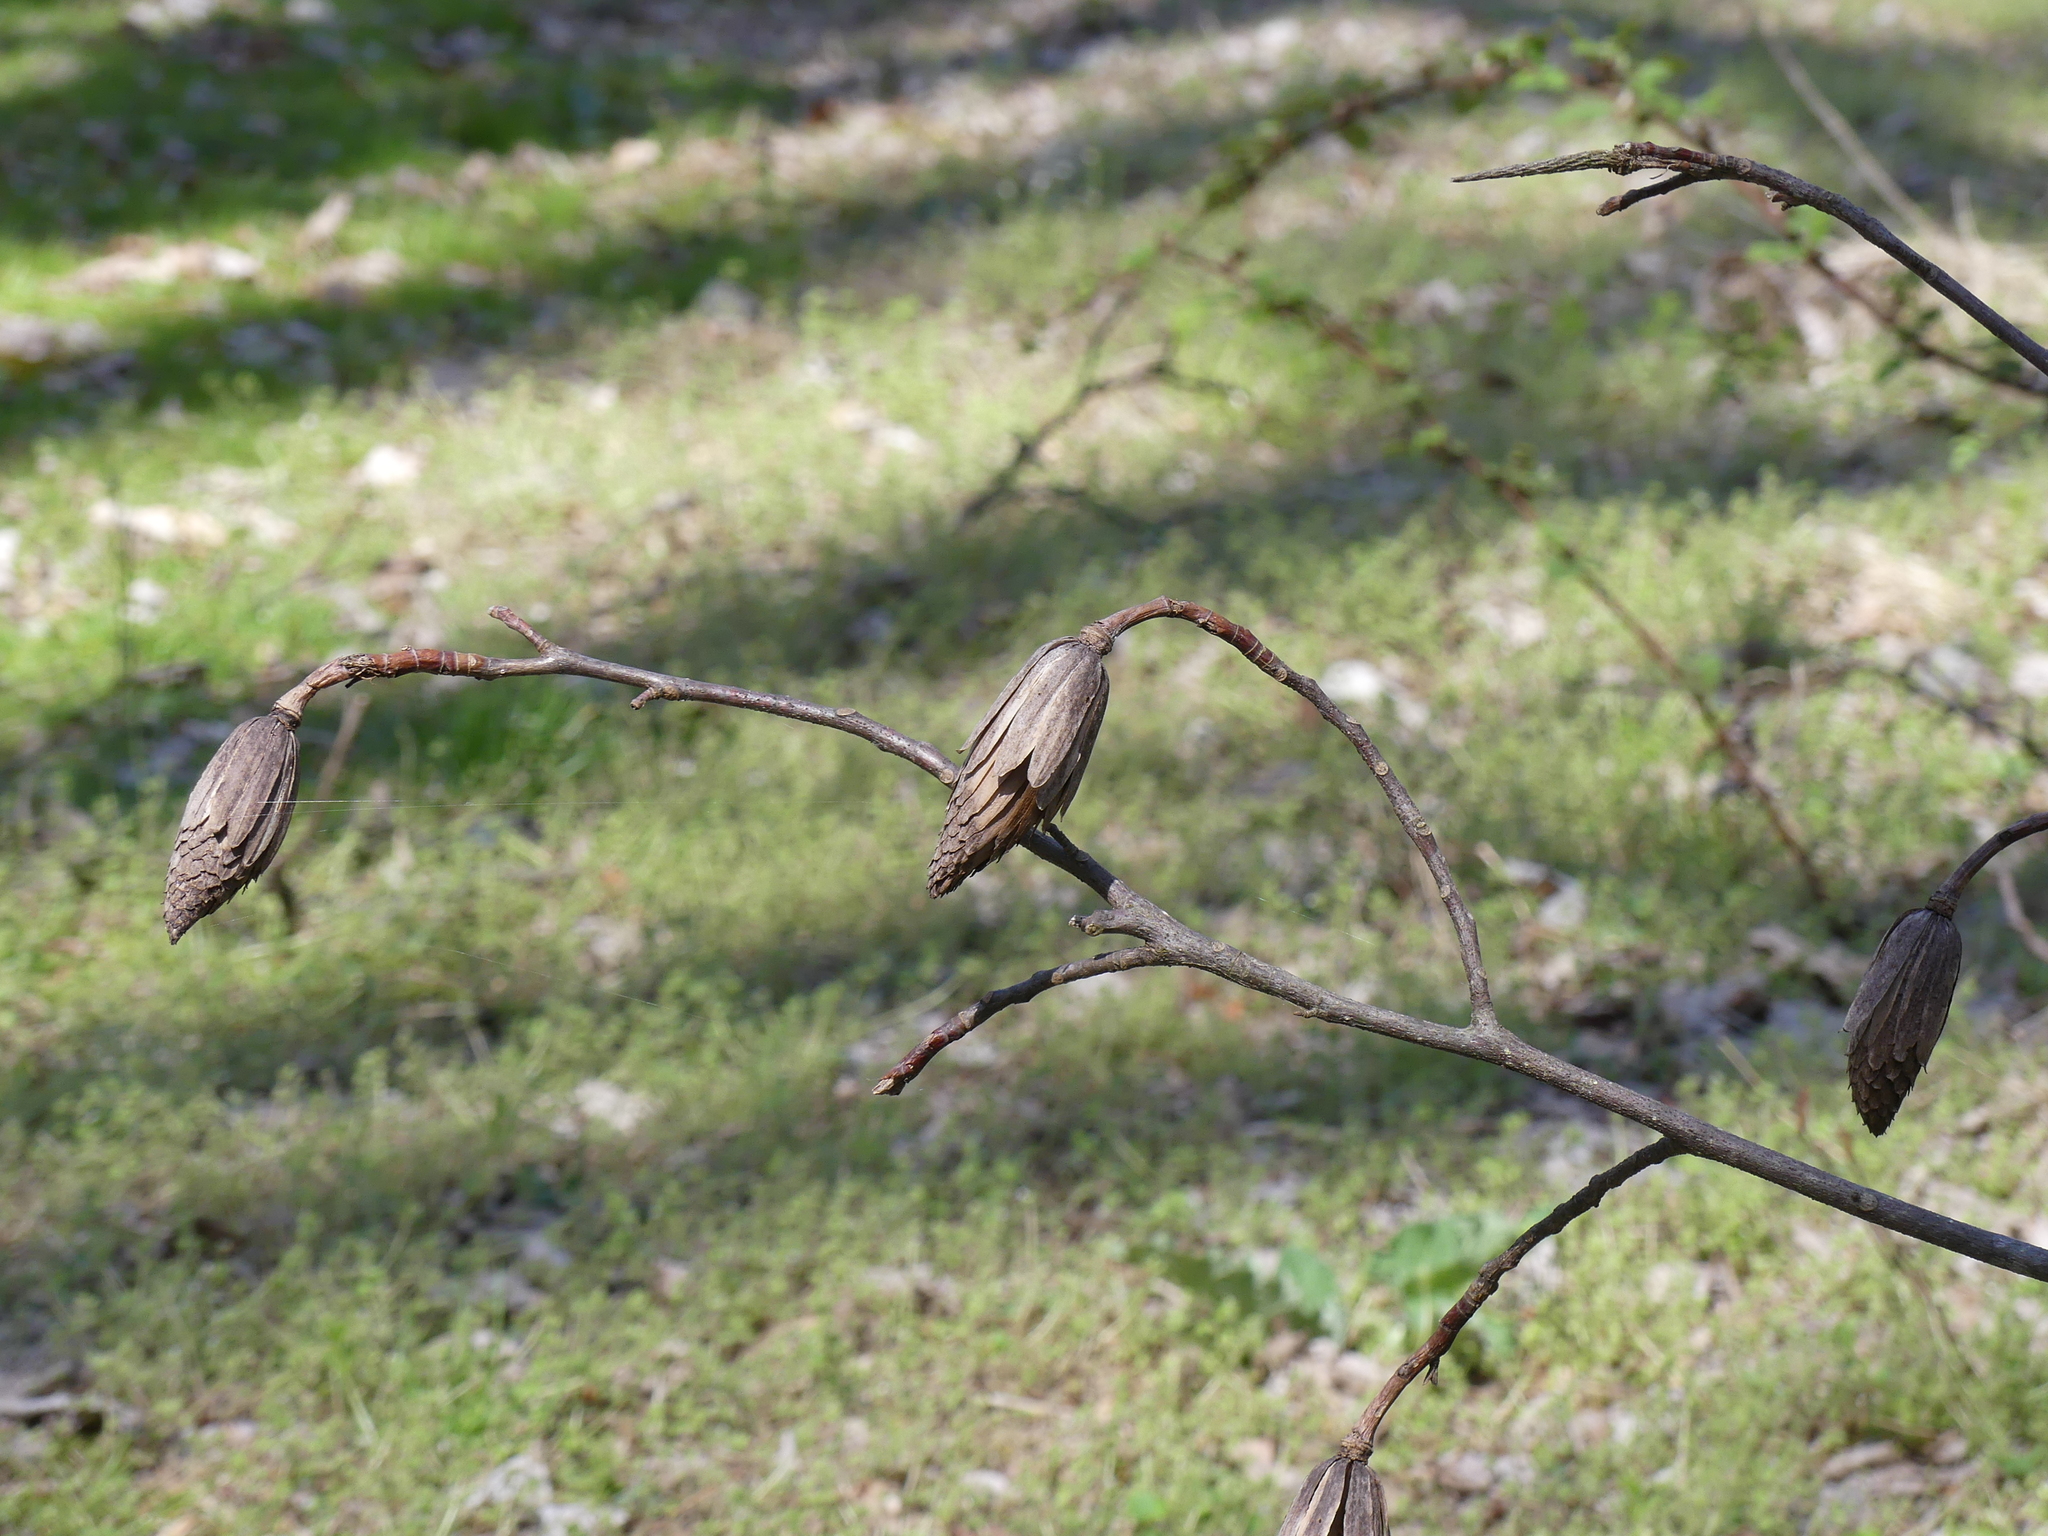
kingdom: Plantae
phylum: Tracheophyta
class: Magnoliopsida
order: Magnoliales
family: Magnoliaceae
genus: Liriodendron
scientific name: Liriodendron tulipifera
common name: Tulip tree
